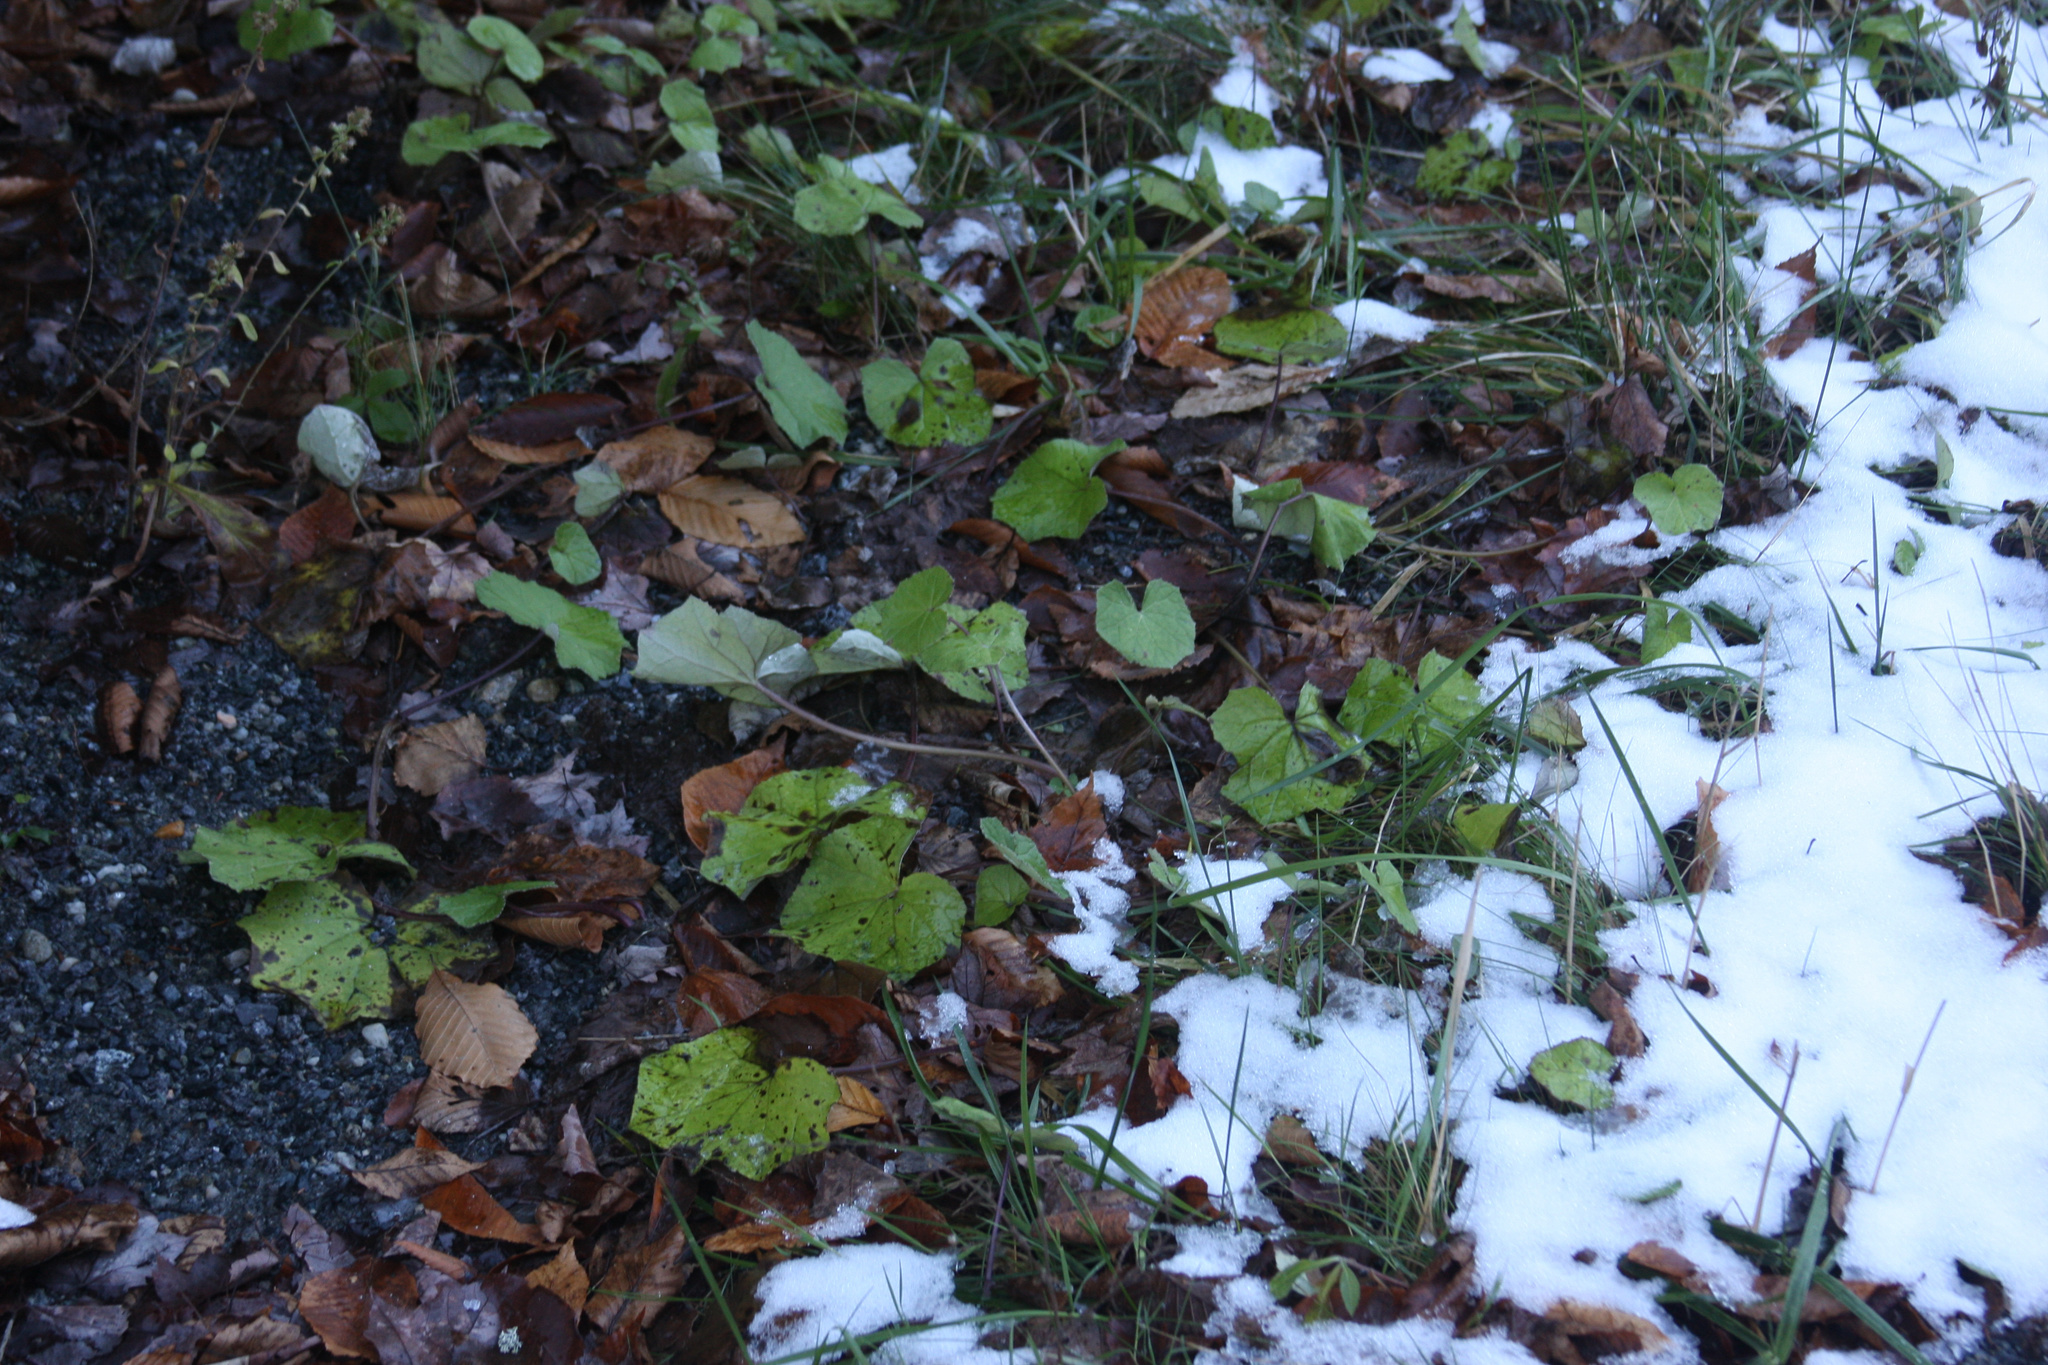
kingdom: Plantae
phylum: Tracheophyta
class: Magnoliopsida
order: Asterales
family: Asteraceae
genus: Tussilago
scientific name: Tussilago farfara
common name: Coltsfoot
